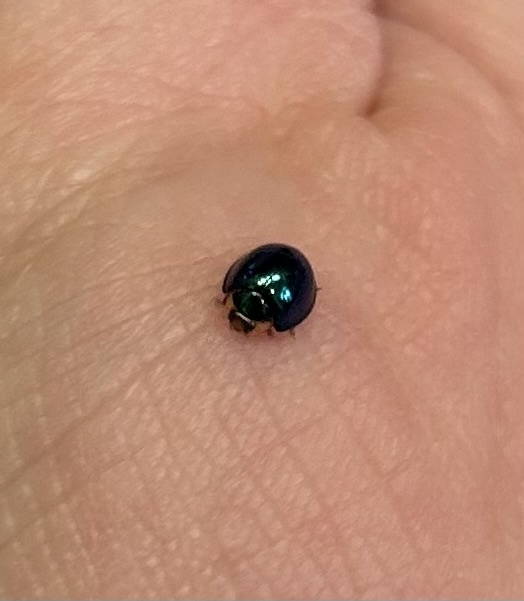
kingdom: Animalia
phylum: Arthropoda
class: Insecta
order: Coleoptera
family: Coccinellidae
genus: Halmus
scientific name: Halmus chalybeus
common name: Steel blue ladybird beetle
